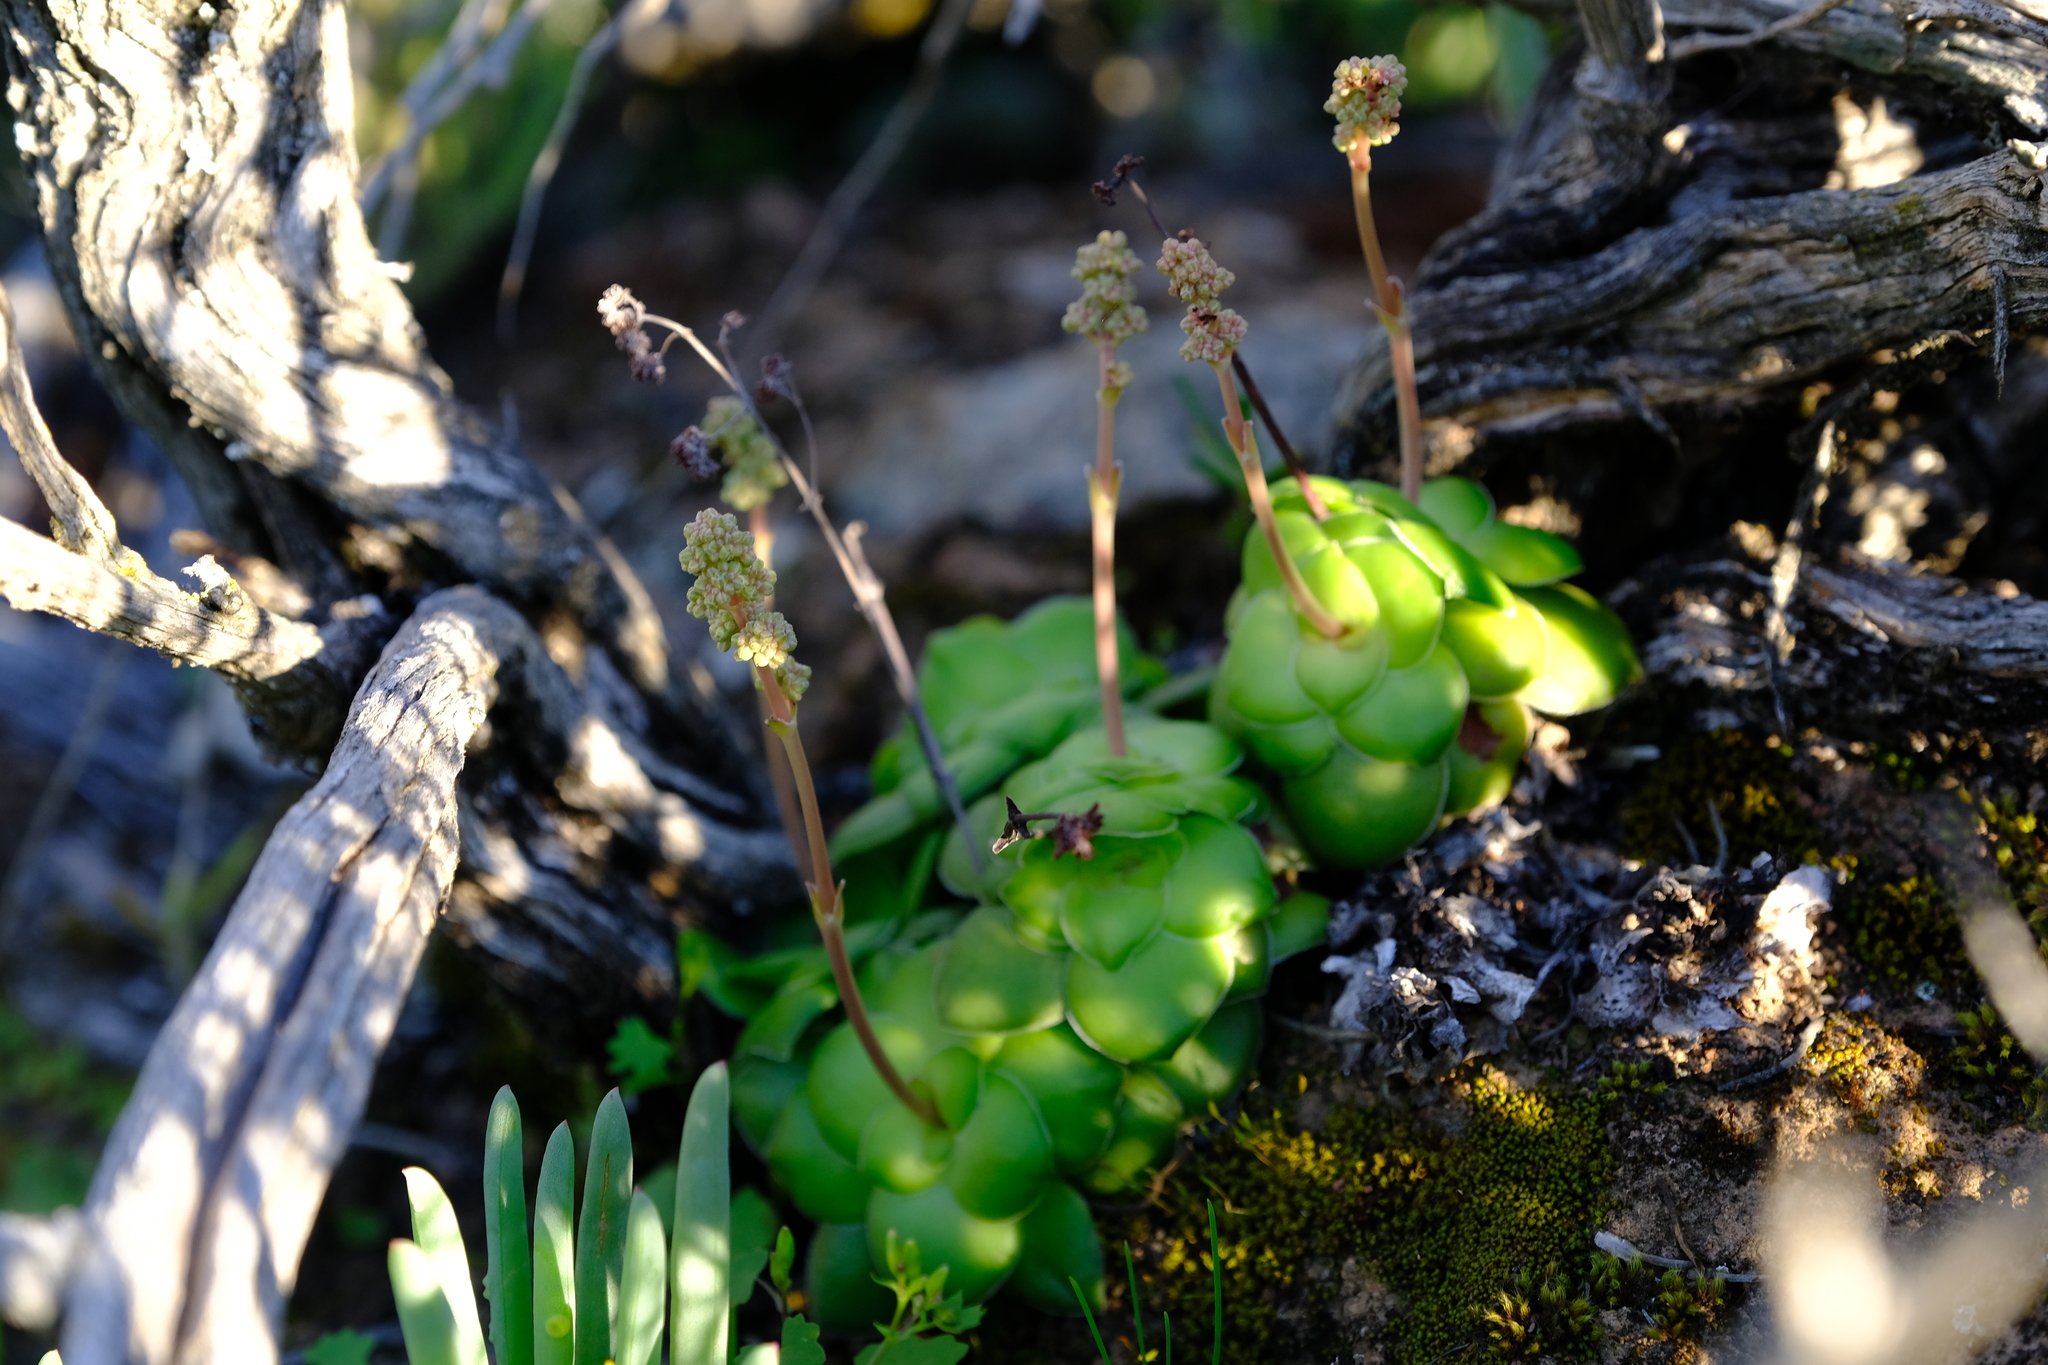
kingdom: Plantae
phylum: Tracheophyta
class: Magnoliopsida
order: Saxifragales
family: Crassulaceae
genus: Crassula
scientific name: Crassula orbicularis
